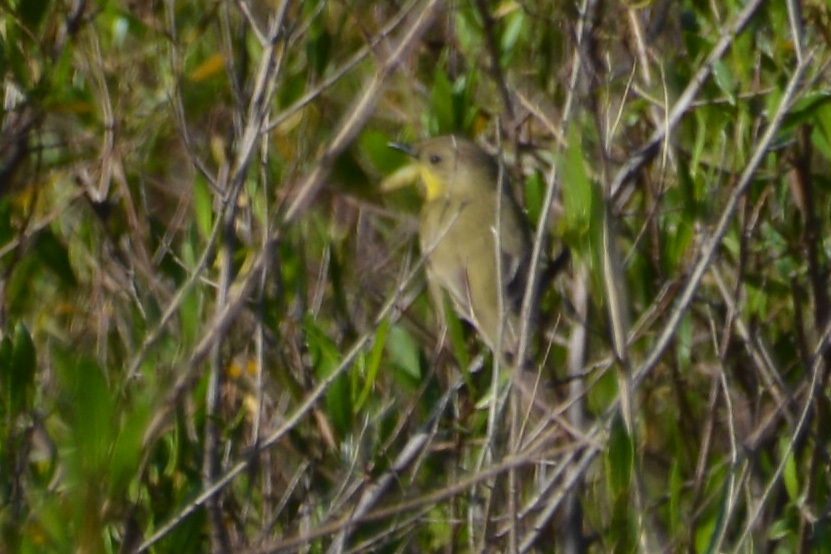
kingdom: Animalia
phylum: Chordata
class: Aves
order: Passeriformes
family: Tyrannidae
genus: Pseudocolopteryx
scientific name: Pseudocolopteryx dinelliana
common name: Dinelli's doradito
